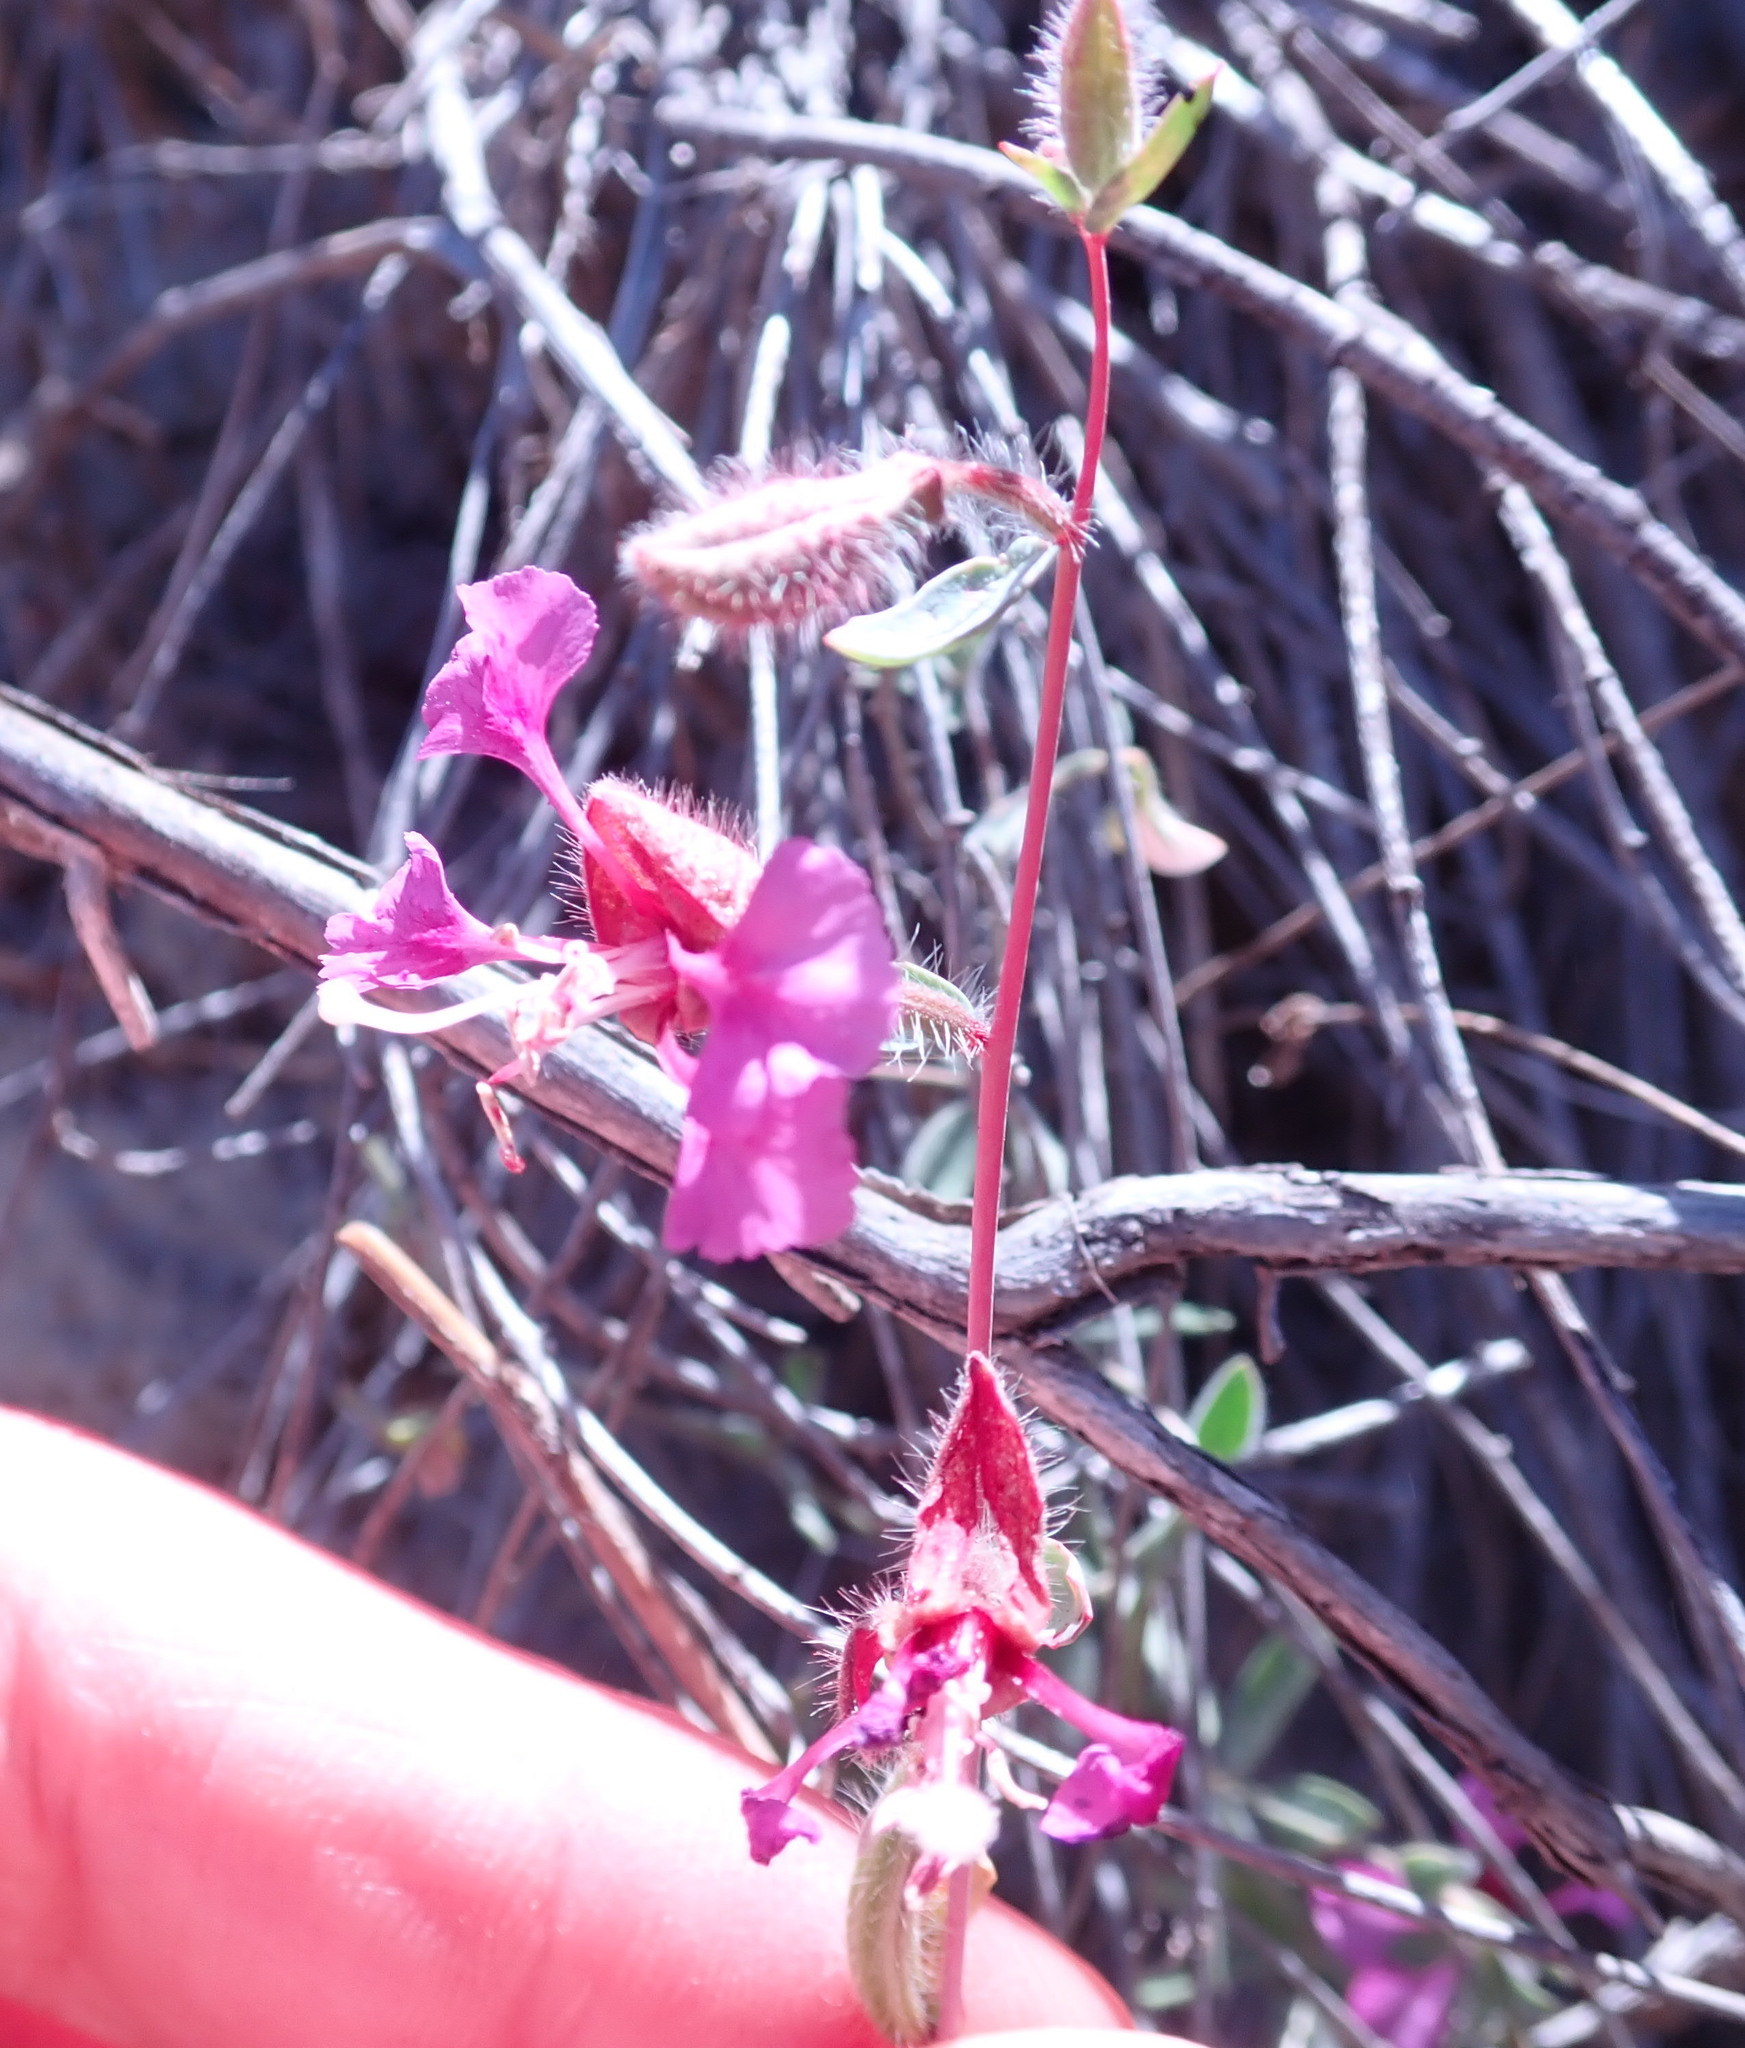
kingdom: Plantae
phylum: Tracheophyta
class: Magnoliopsida
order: Myrtales
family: Onagraceae
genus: Clarkia
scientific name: Clarkia unguiculata
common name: Clarkia
